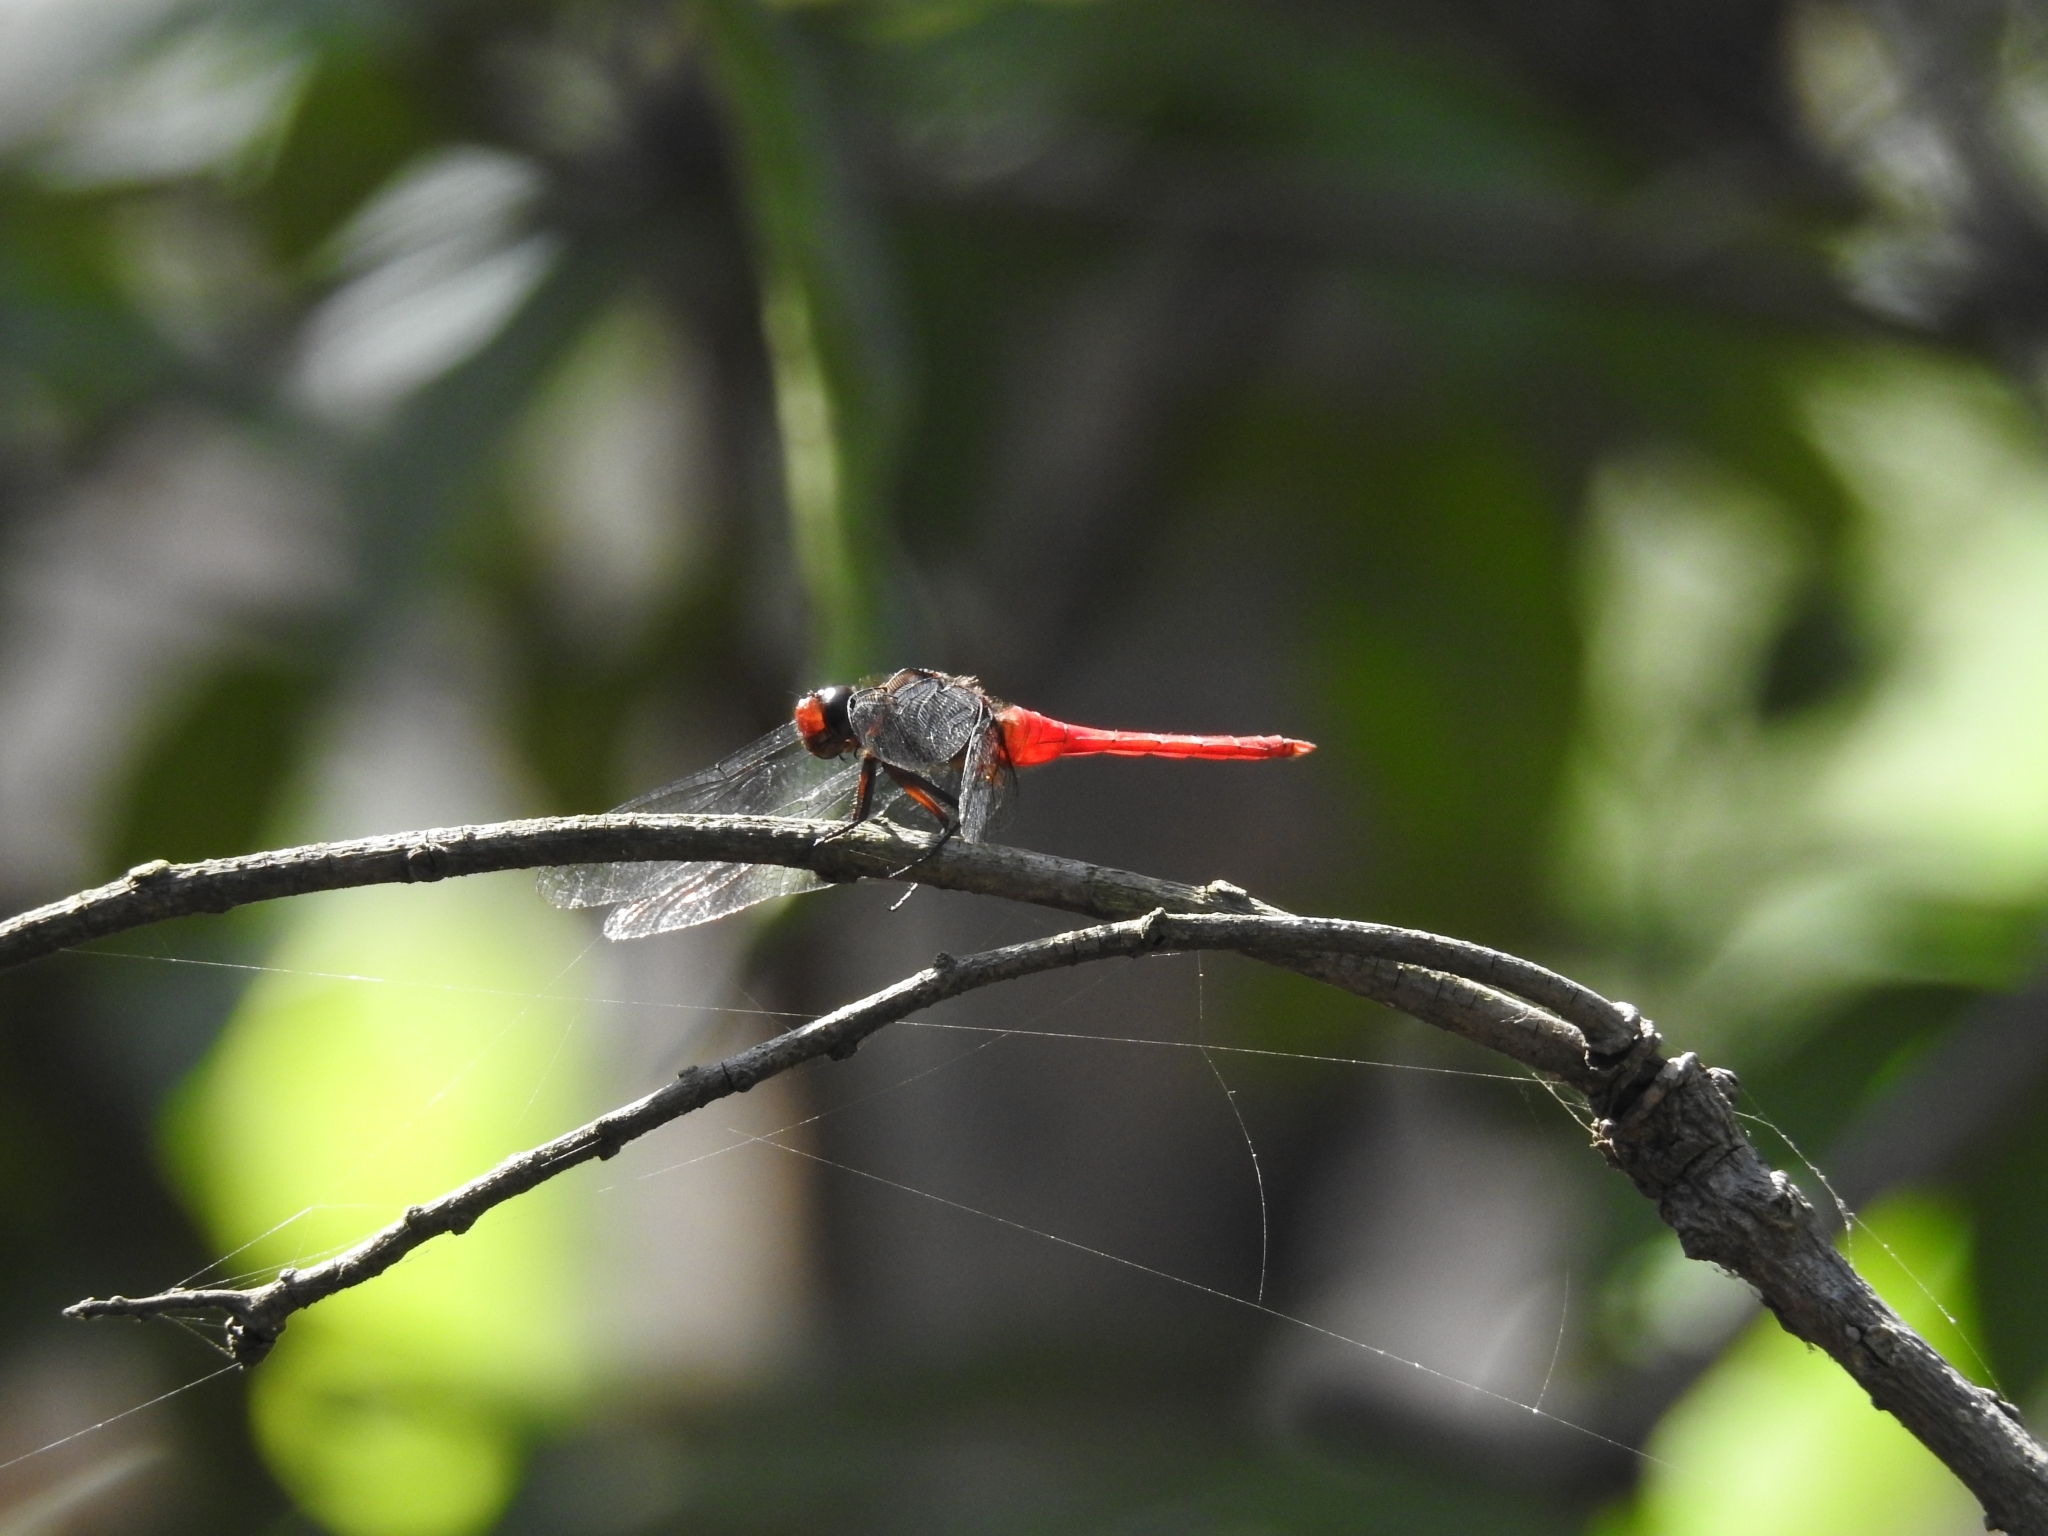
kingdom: Animalia
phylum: Arthropoda
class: Insecta
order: Odonata
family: Libellulidae
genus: Orthetrum
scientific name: Orthetrum chrysis
